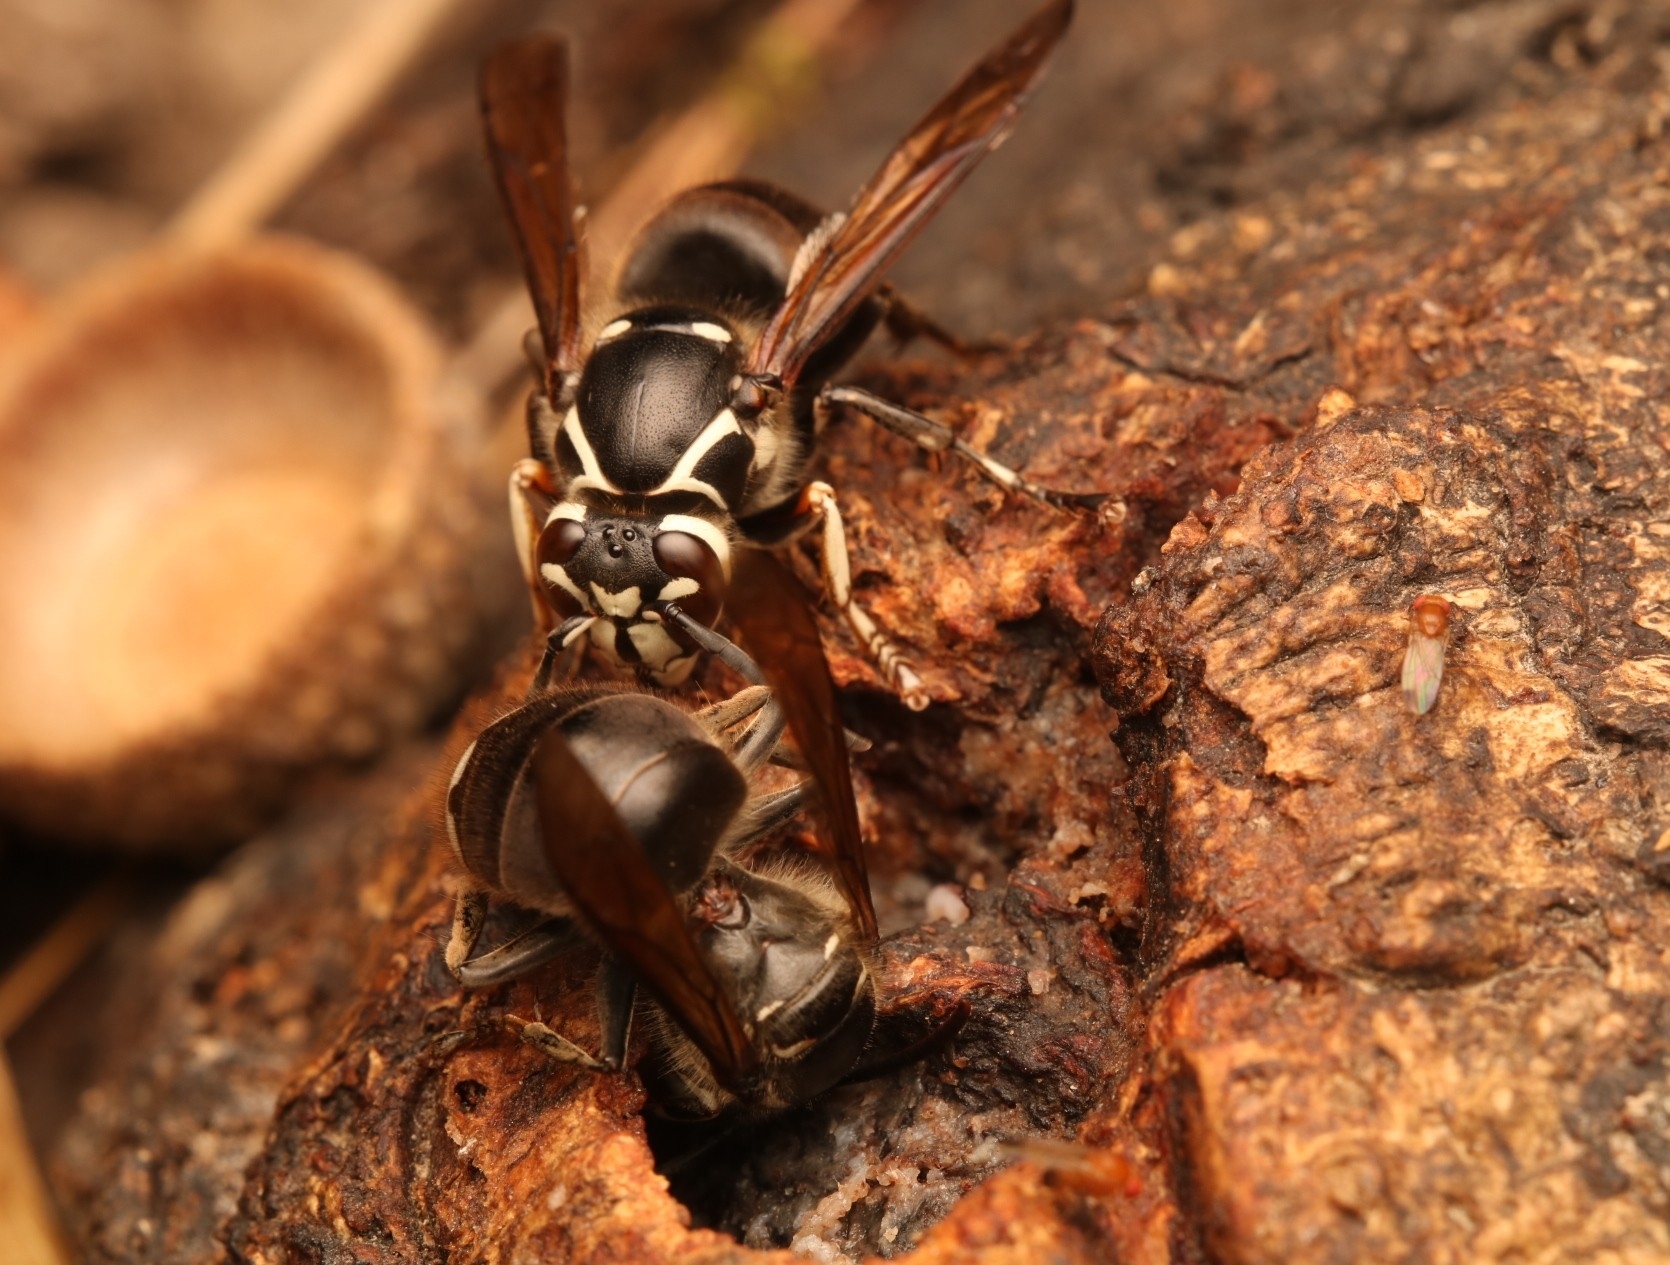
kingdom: Animalia
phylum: Arthropoda
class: Insecta
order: Hymenoptera
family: Vespidae
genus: Dolichovespula
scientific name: Dolichovespula maculata
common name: Bald-faced hornet
